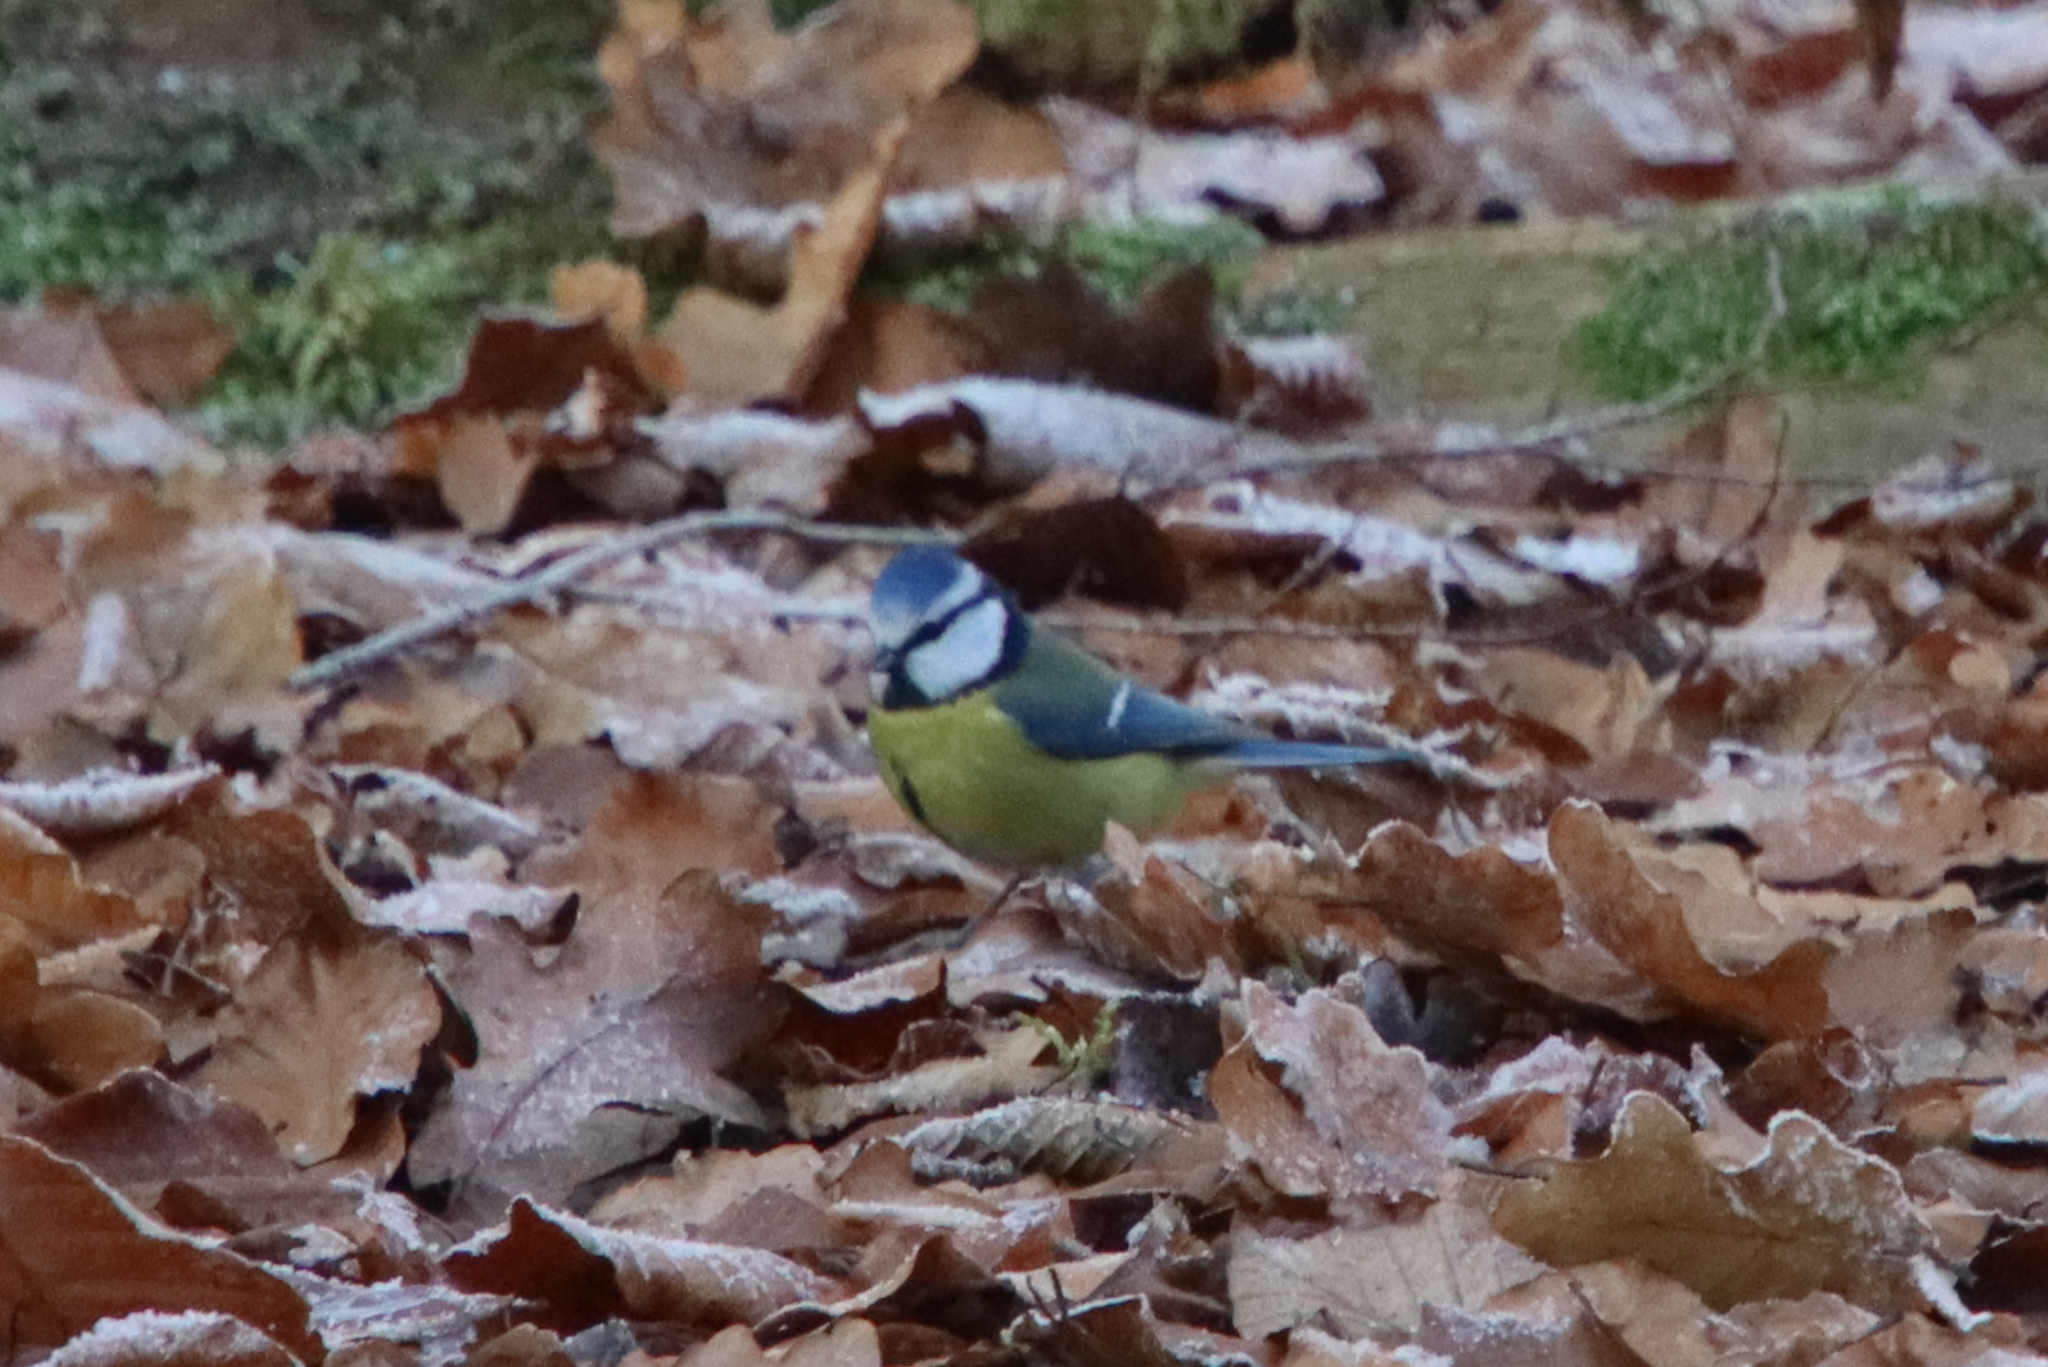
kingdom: Animalia
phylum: Chordata
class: Aves
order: Passeriformes
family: Paridae
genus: Cyanistes
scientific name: Cyanistes caeruleus
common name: Eurasian blue tit
